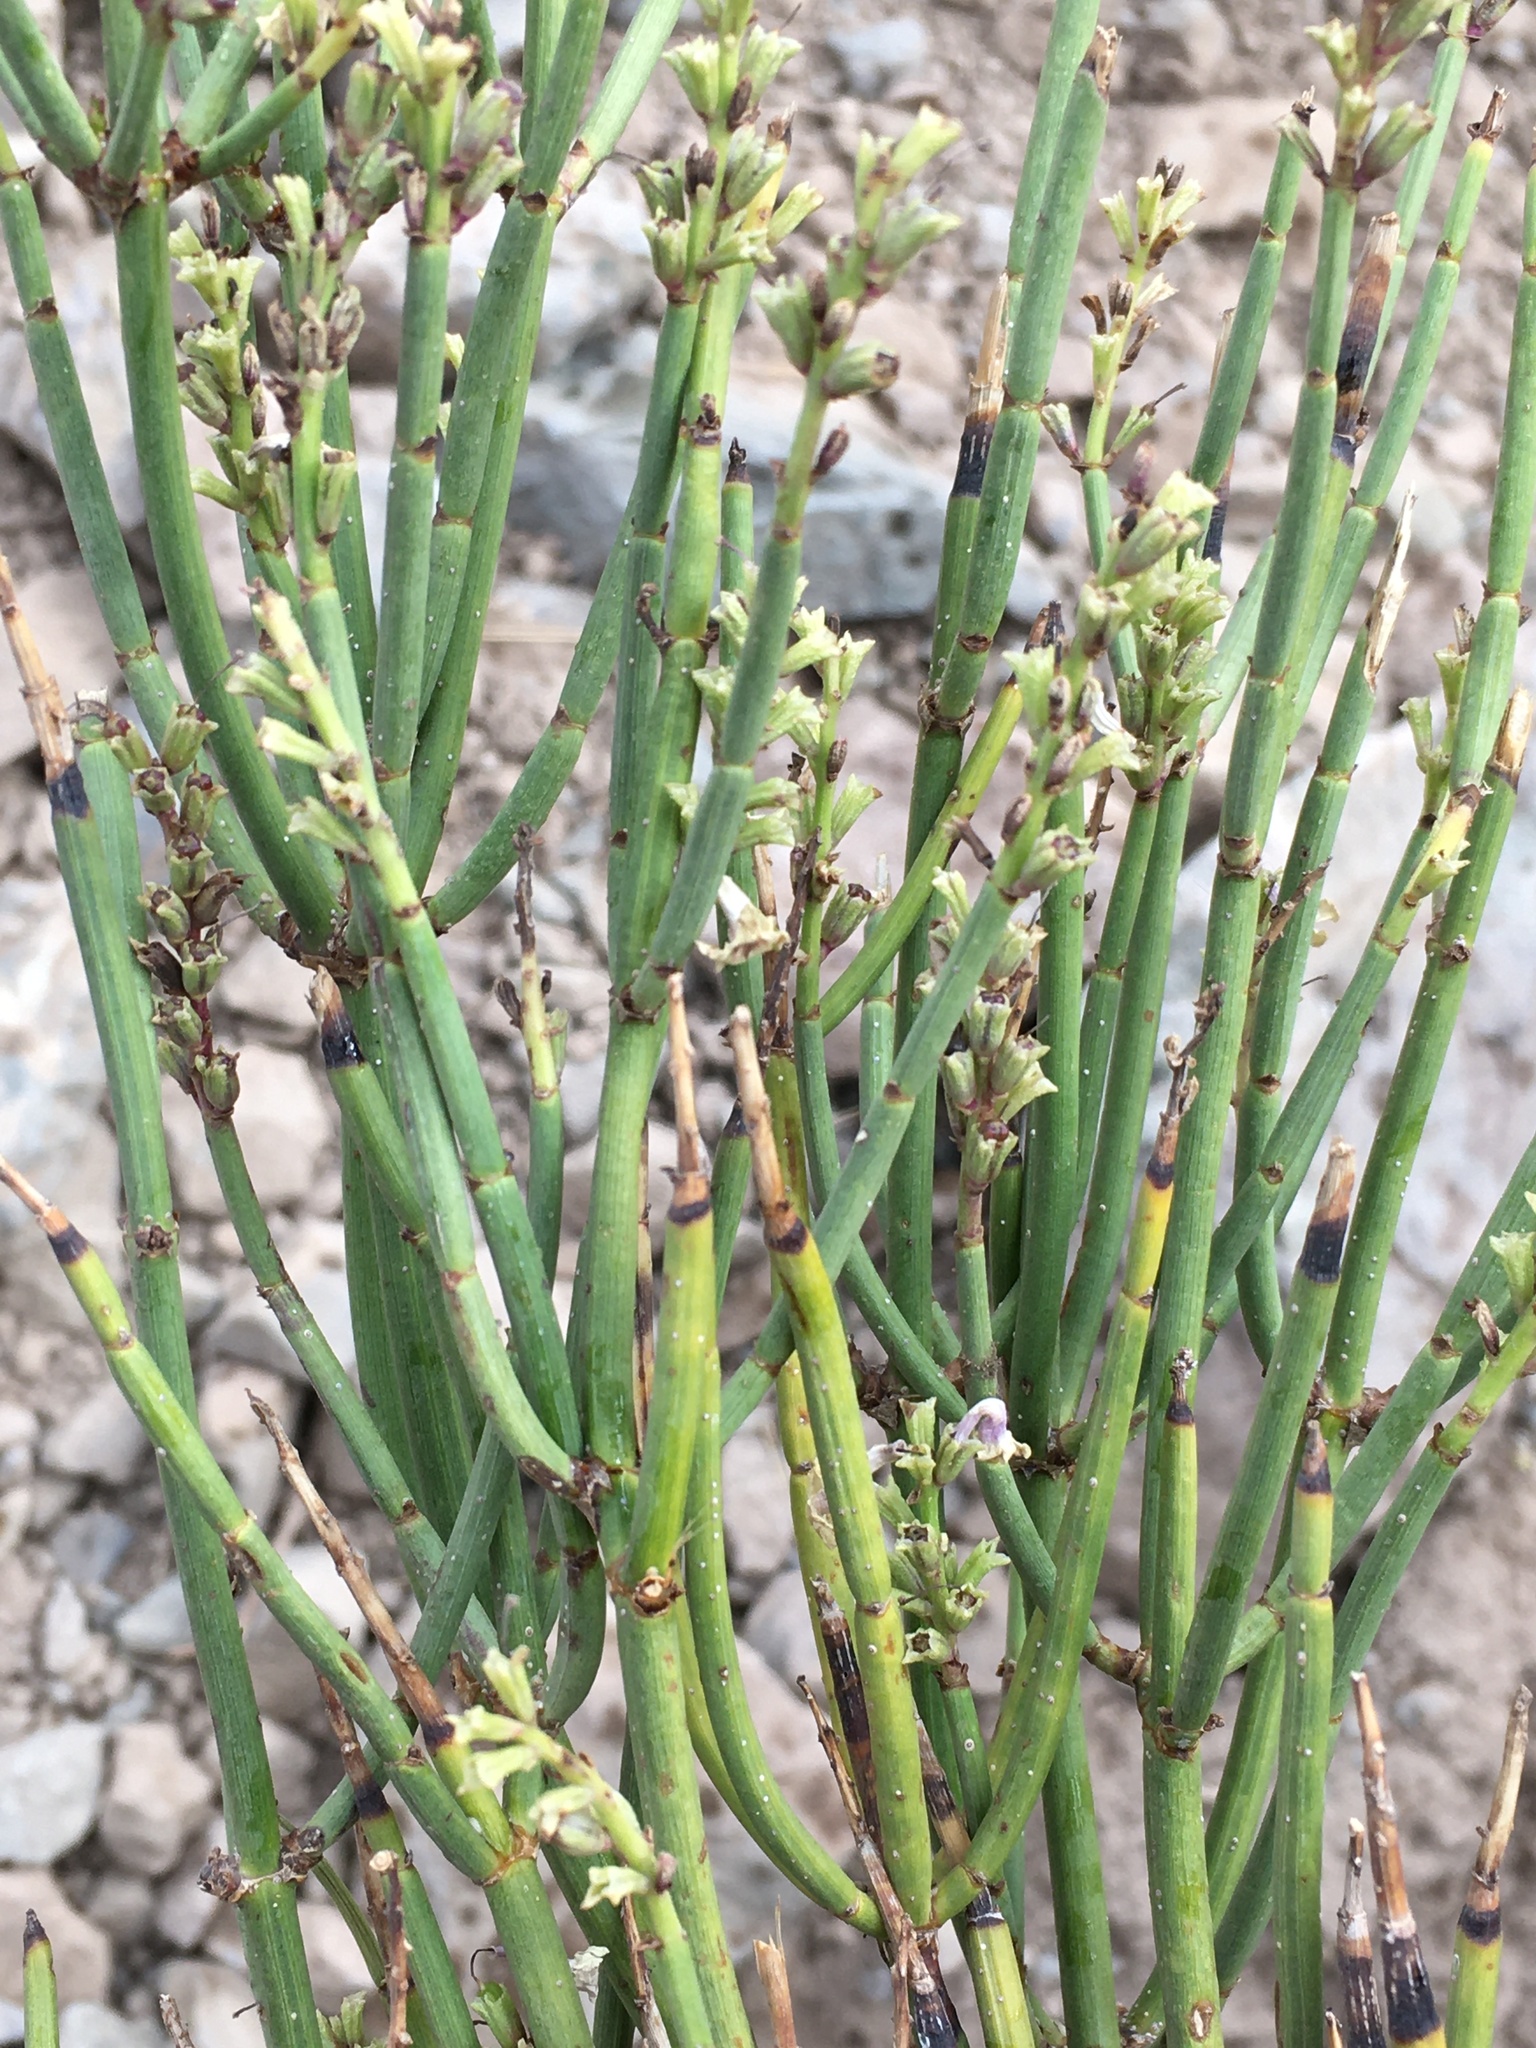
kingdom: Plantae
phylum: Tracheophyta
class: Magnoliopsida
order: Lamiales
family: Verbenaceae
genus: Mulguraea
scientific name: Mulguraea scoparia
